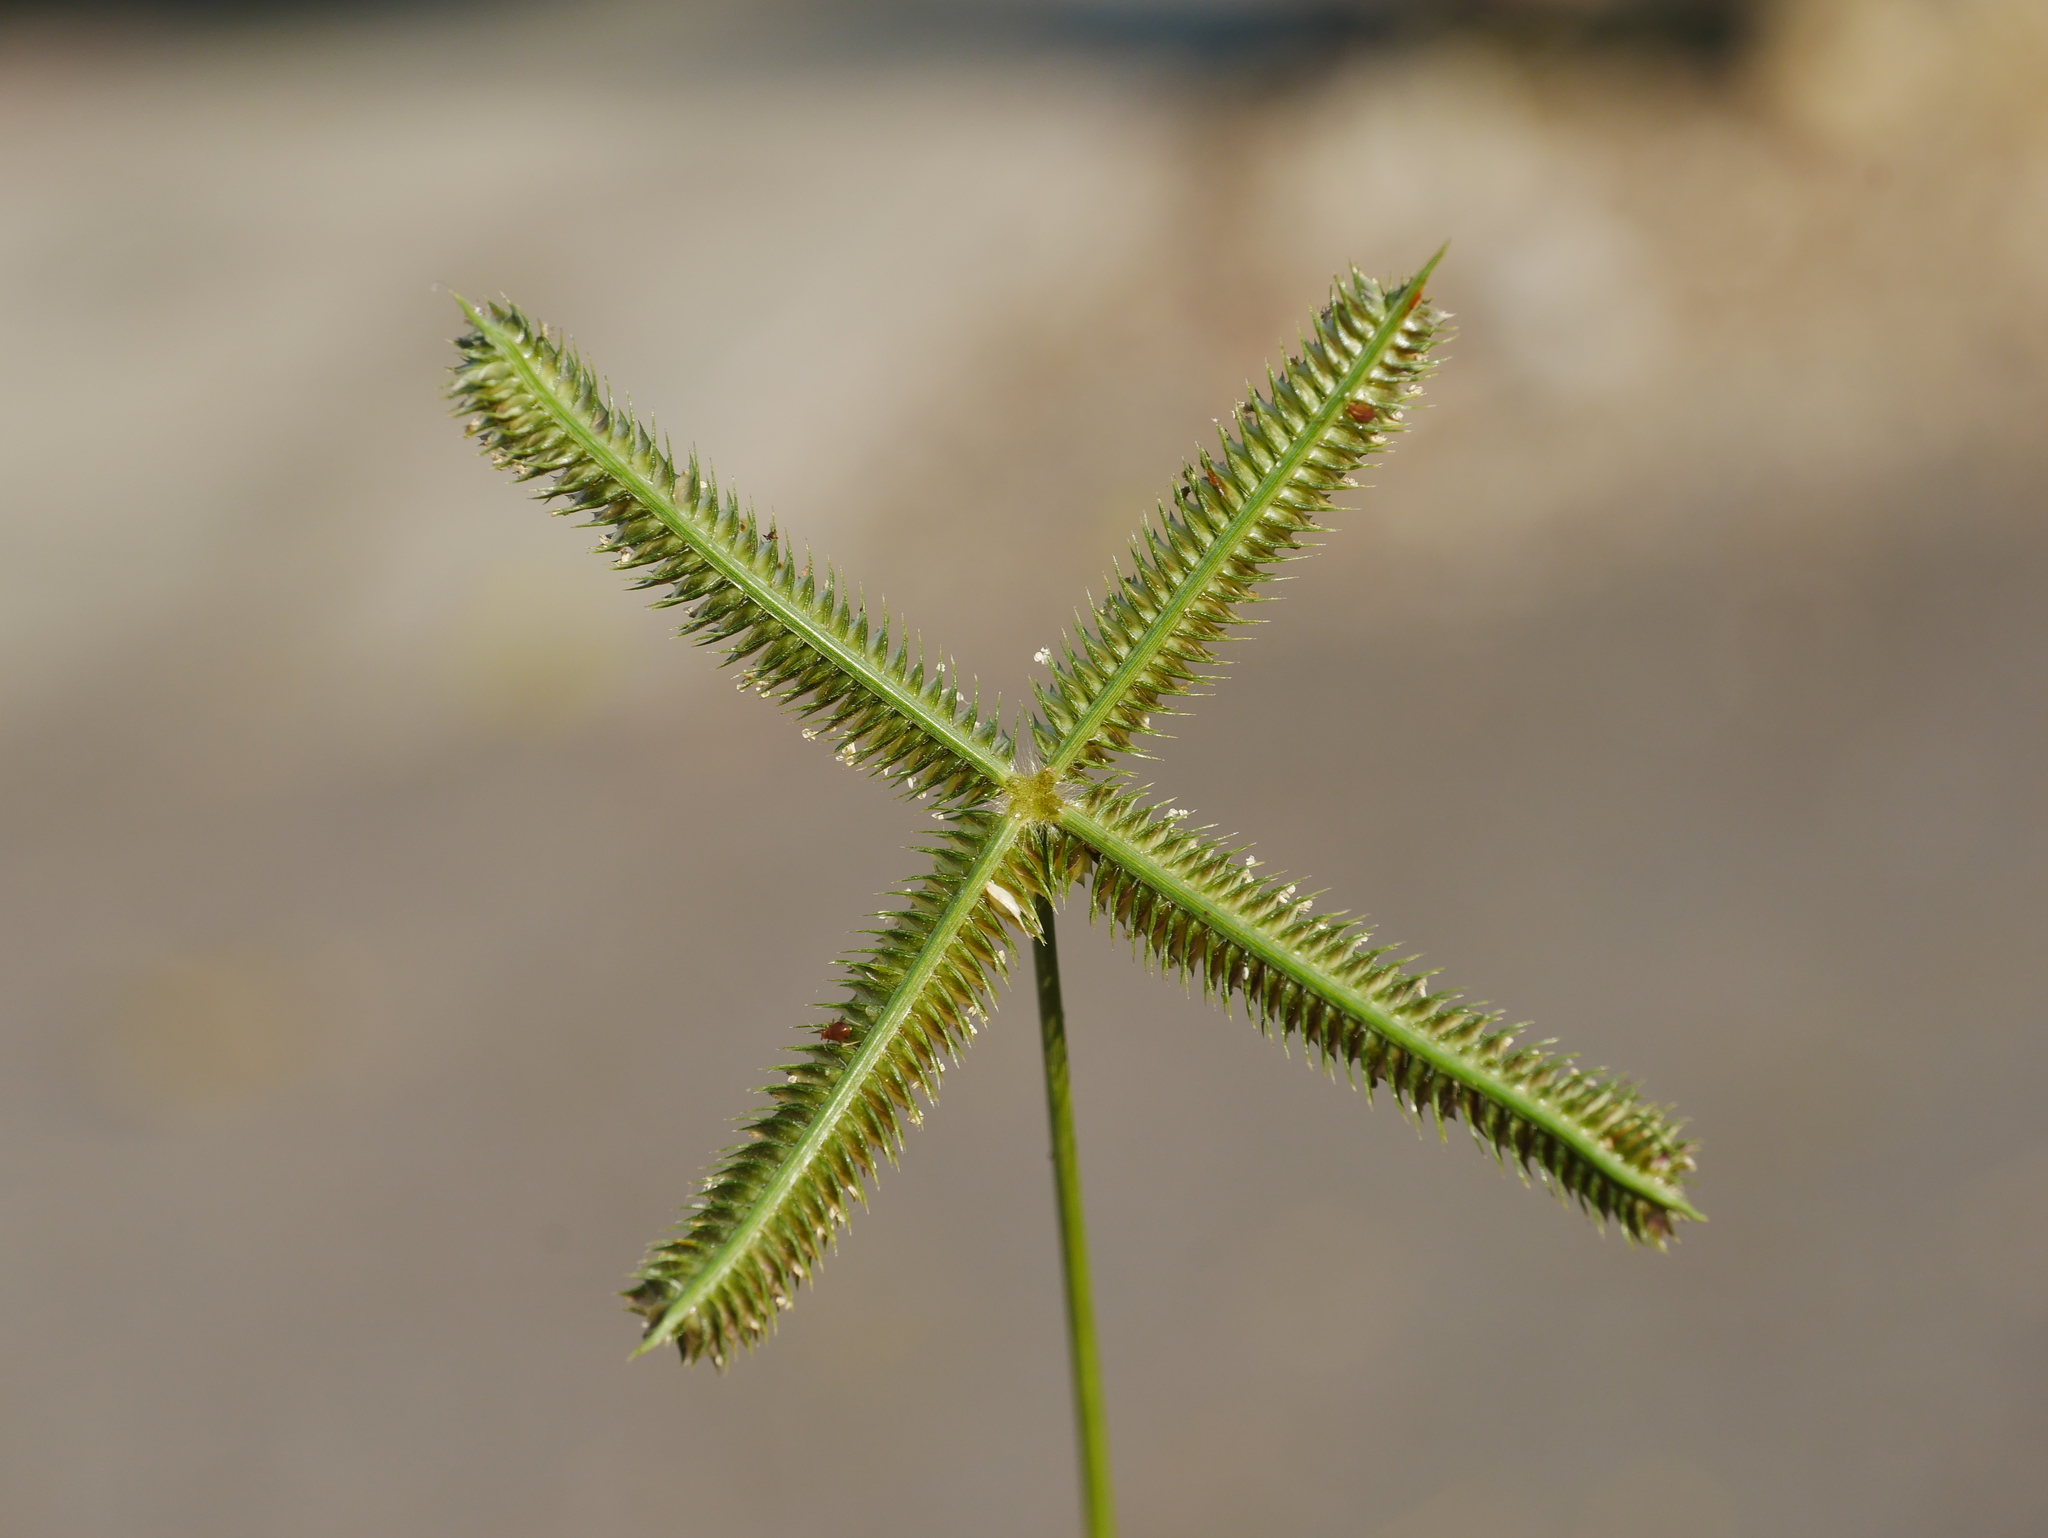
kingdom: Plantae
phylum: Tracheophyta
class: Liliopsida
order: Poales
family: Poaceae
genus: Dactyloctenium
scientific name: Dactyloctenium aegyptium
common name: Egyptian grass
